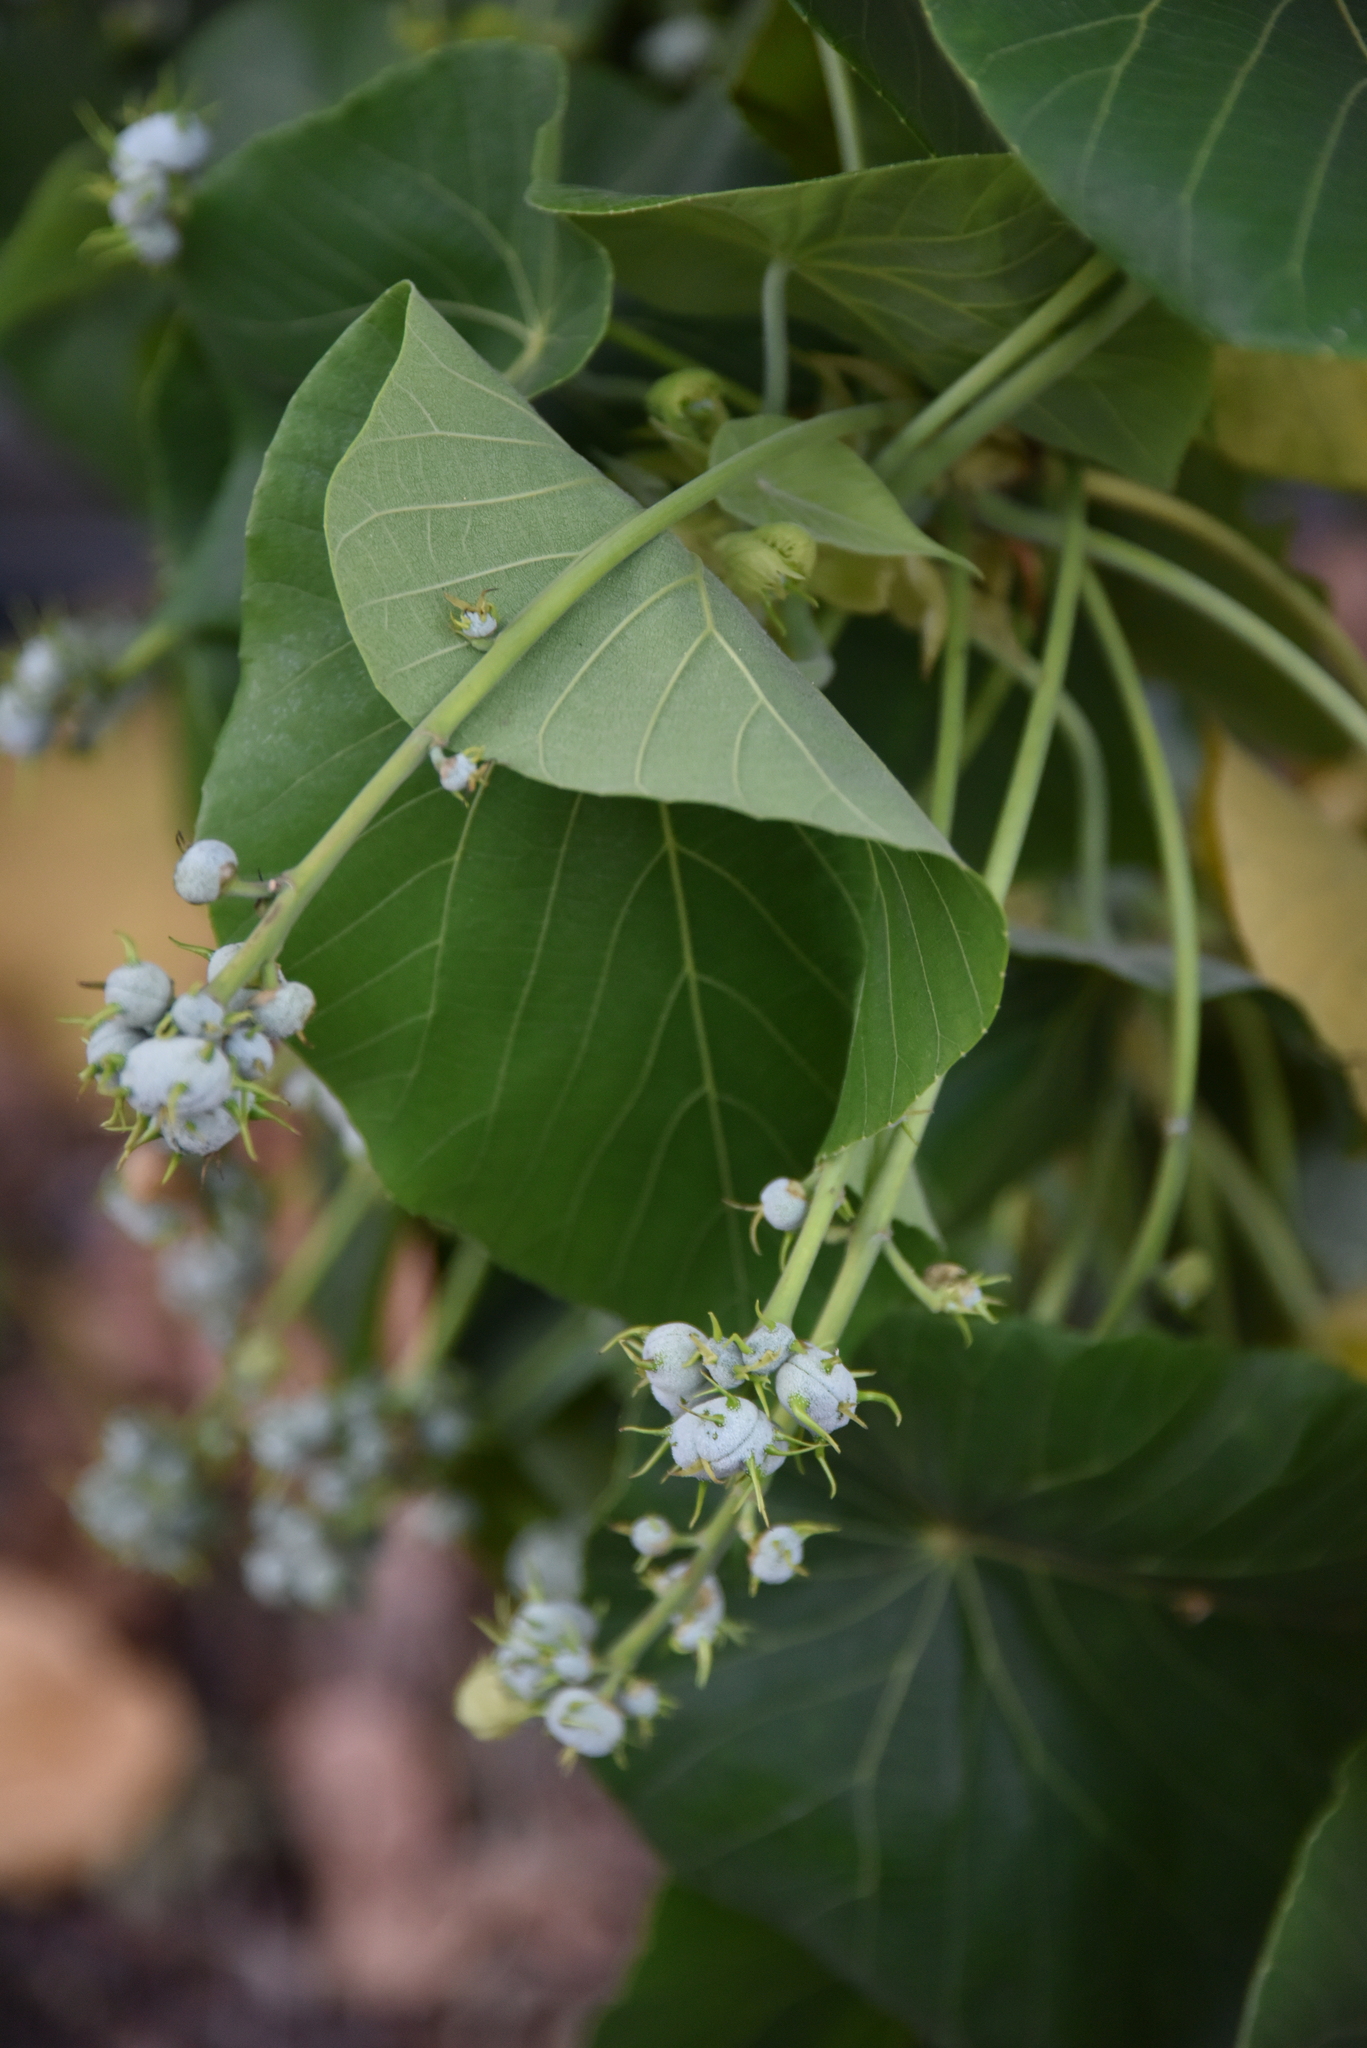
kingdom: Plantae
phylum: Tracheophyta
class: Magnoliopsida
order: Malpighiales
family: Euphorbiaceae
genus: Macaranga
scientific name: Macaranga tanarius
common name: Parasol leaf tree
